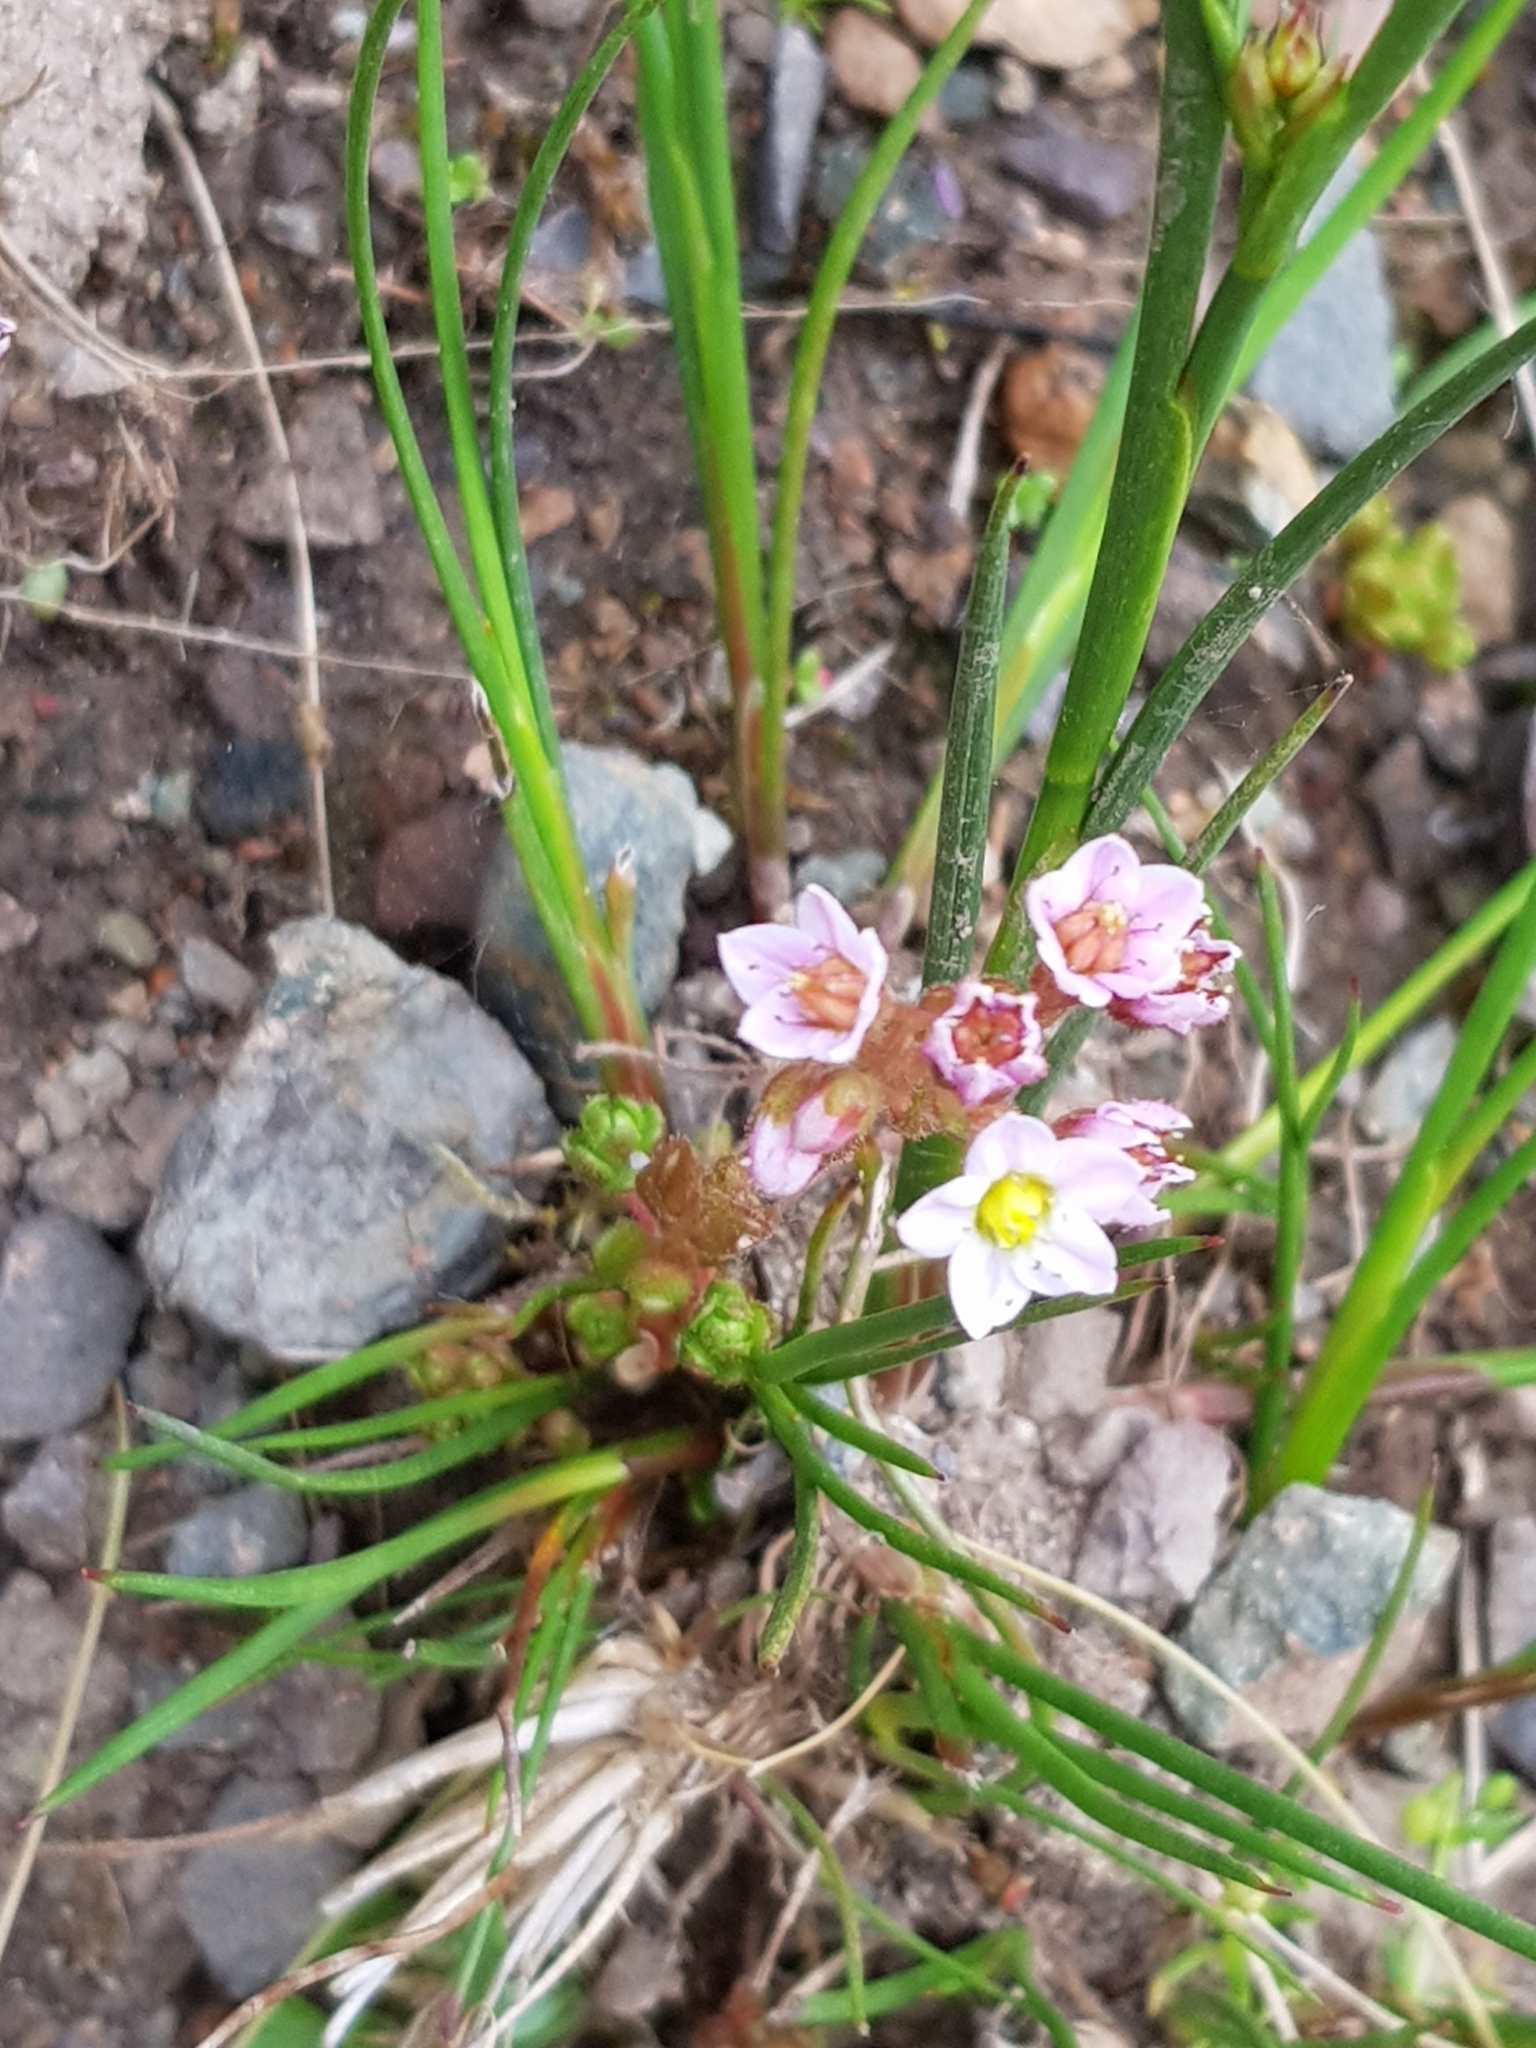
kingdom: Plantae
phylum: Tracheophyta
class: Magnoliopsida
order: Saxifragales
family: Crassulaceae
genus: Sedum
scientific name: Sedum villosum
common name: Hairy stonecrop
